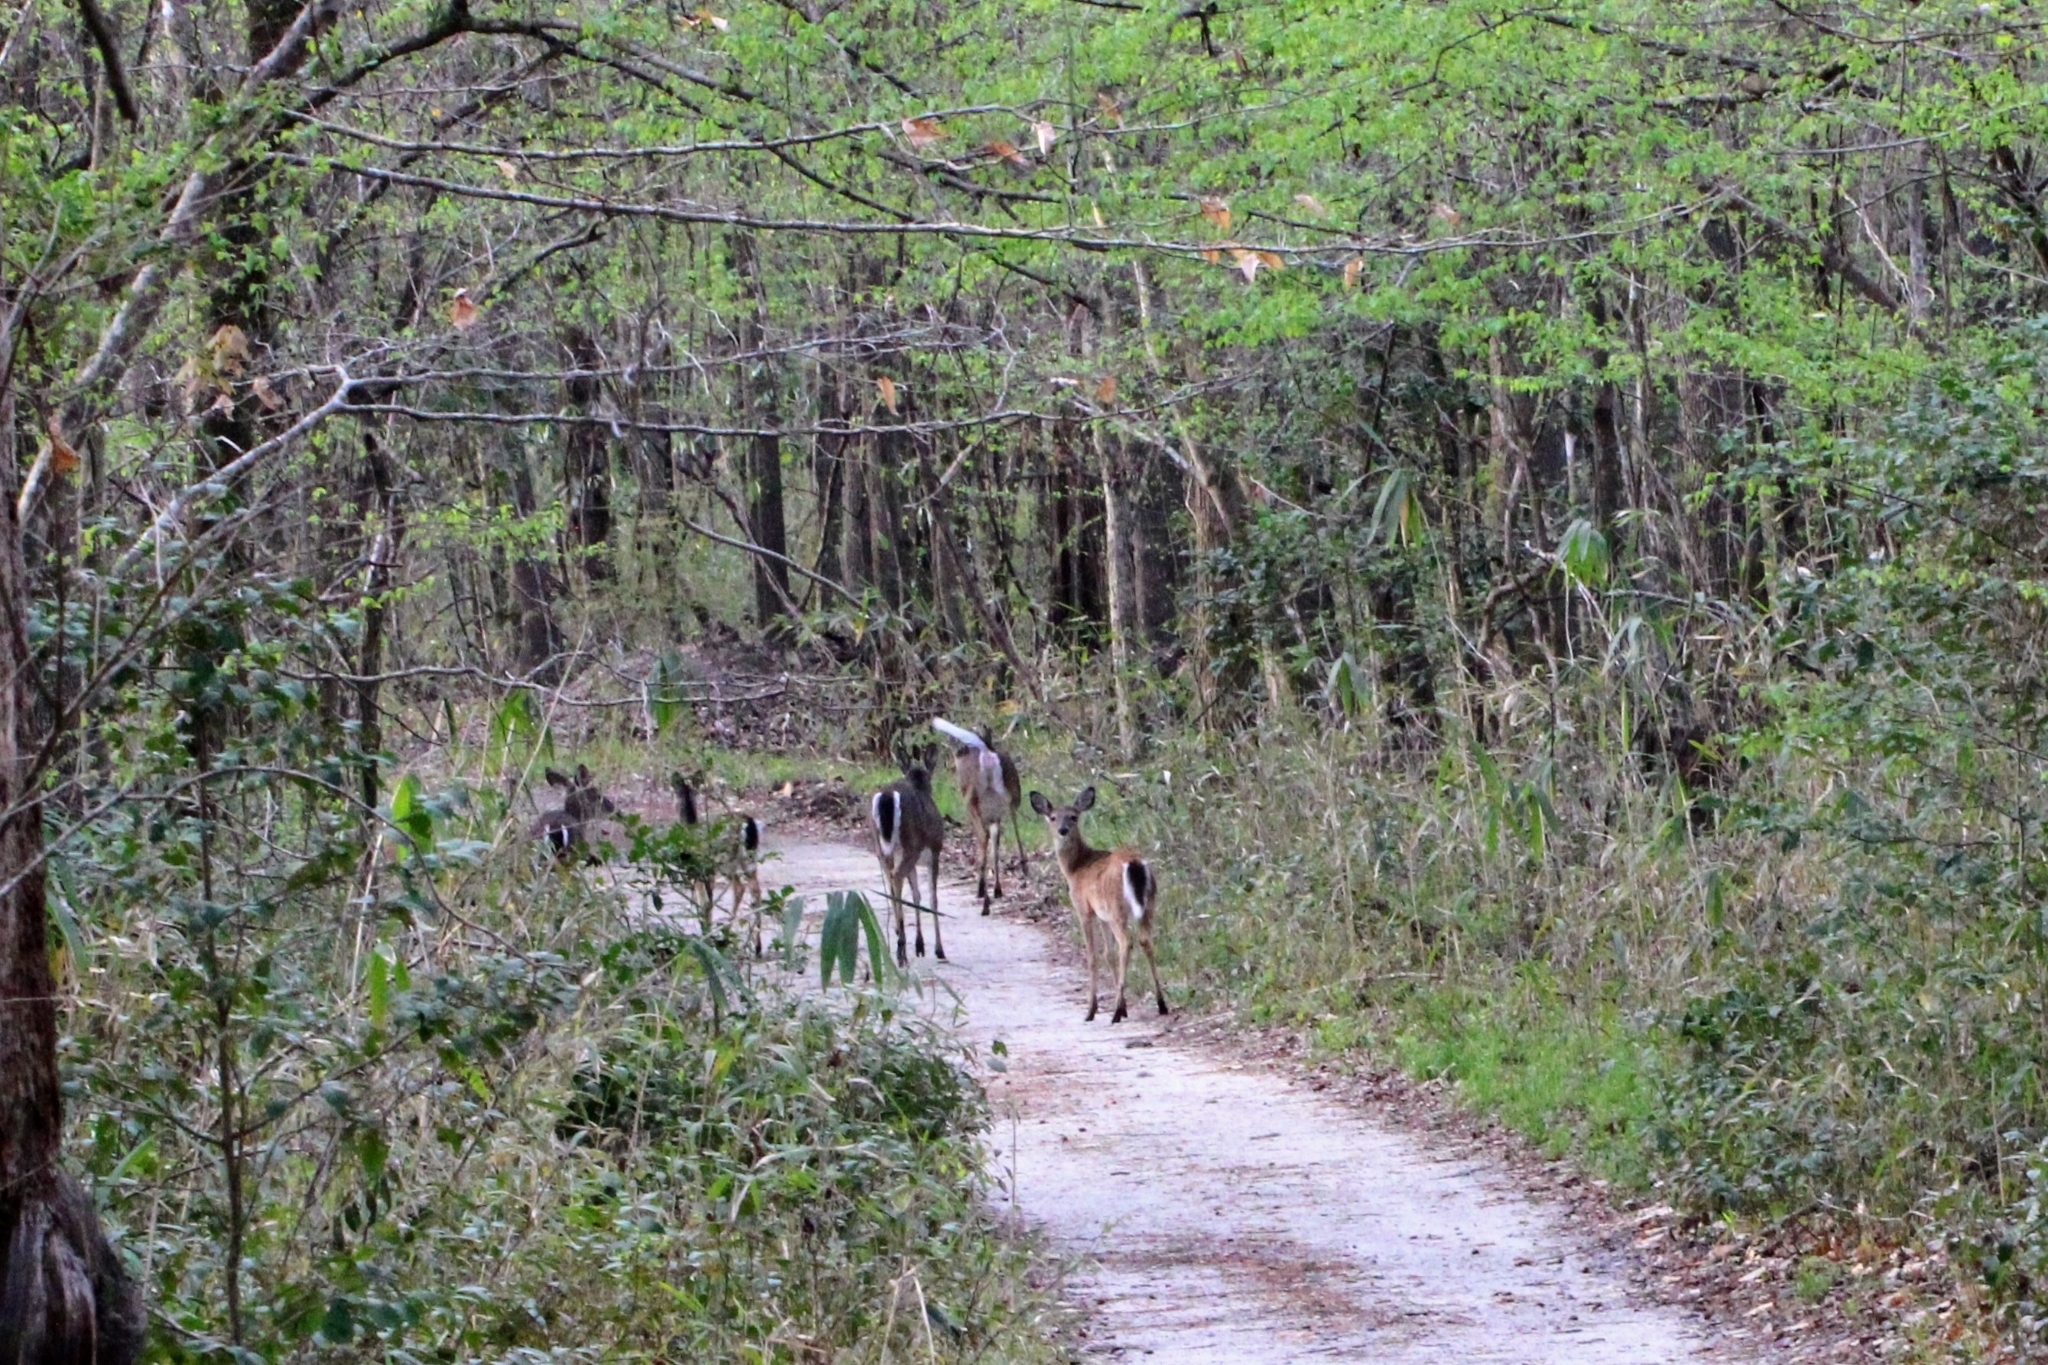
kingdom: Animalia
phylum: Chordata
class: Mammalia
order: Artiodactyla
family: Cervidae
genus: Odocoileus
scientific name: Odocoileus virginianus
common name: White-tailed deer
